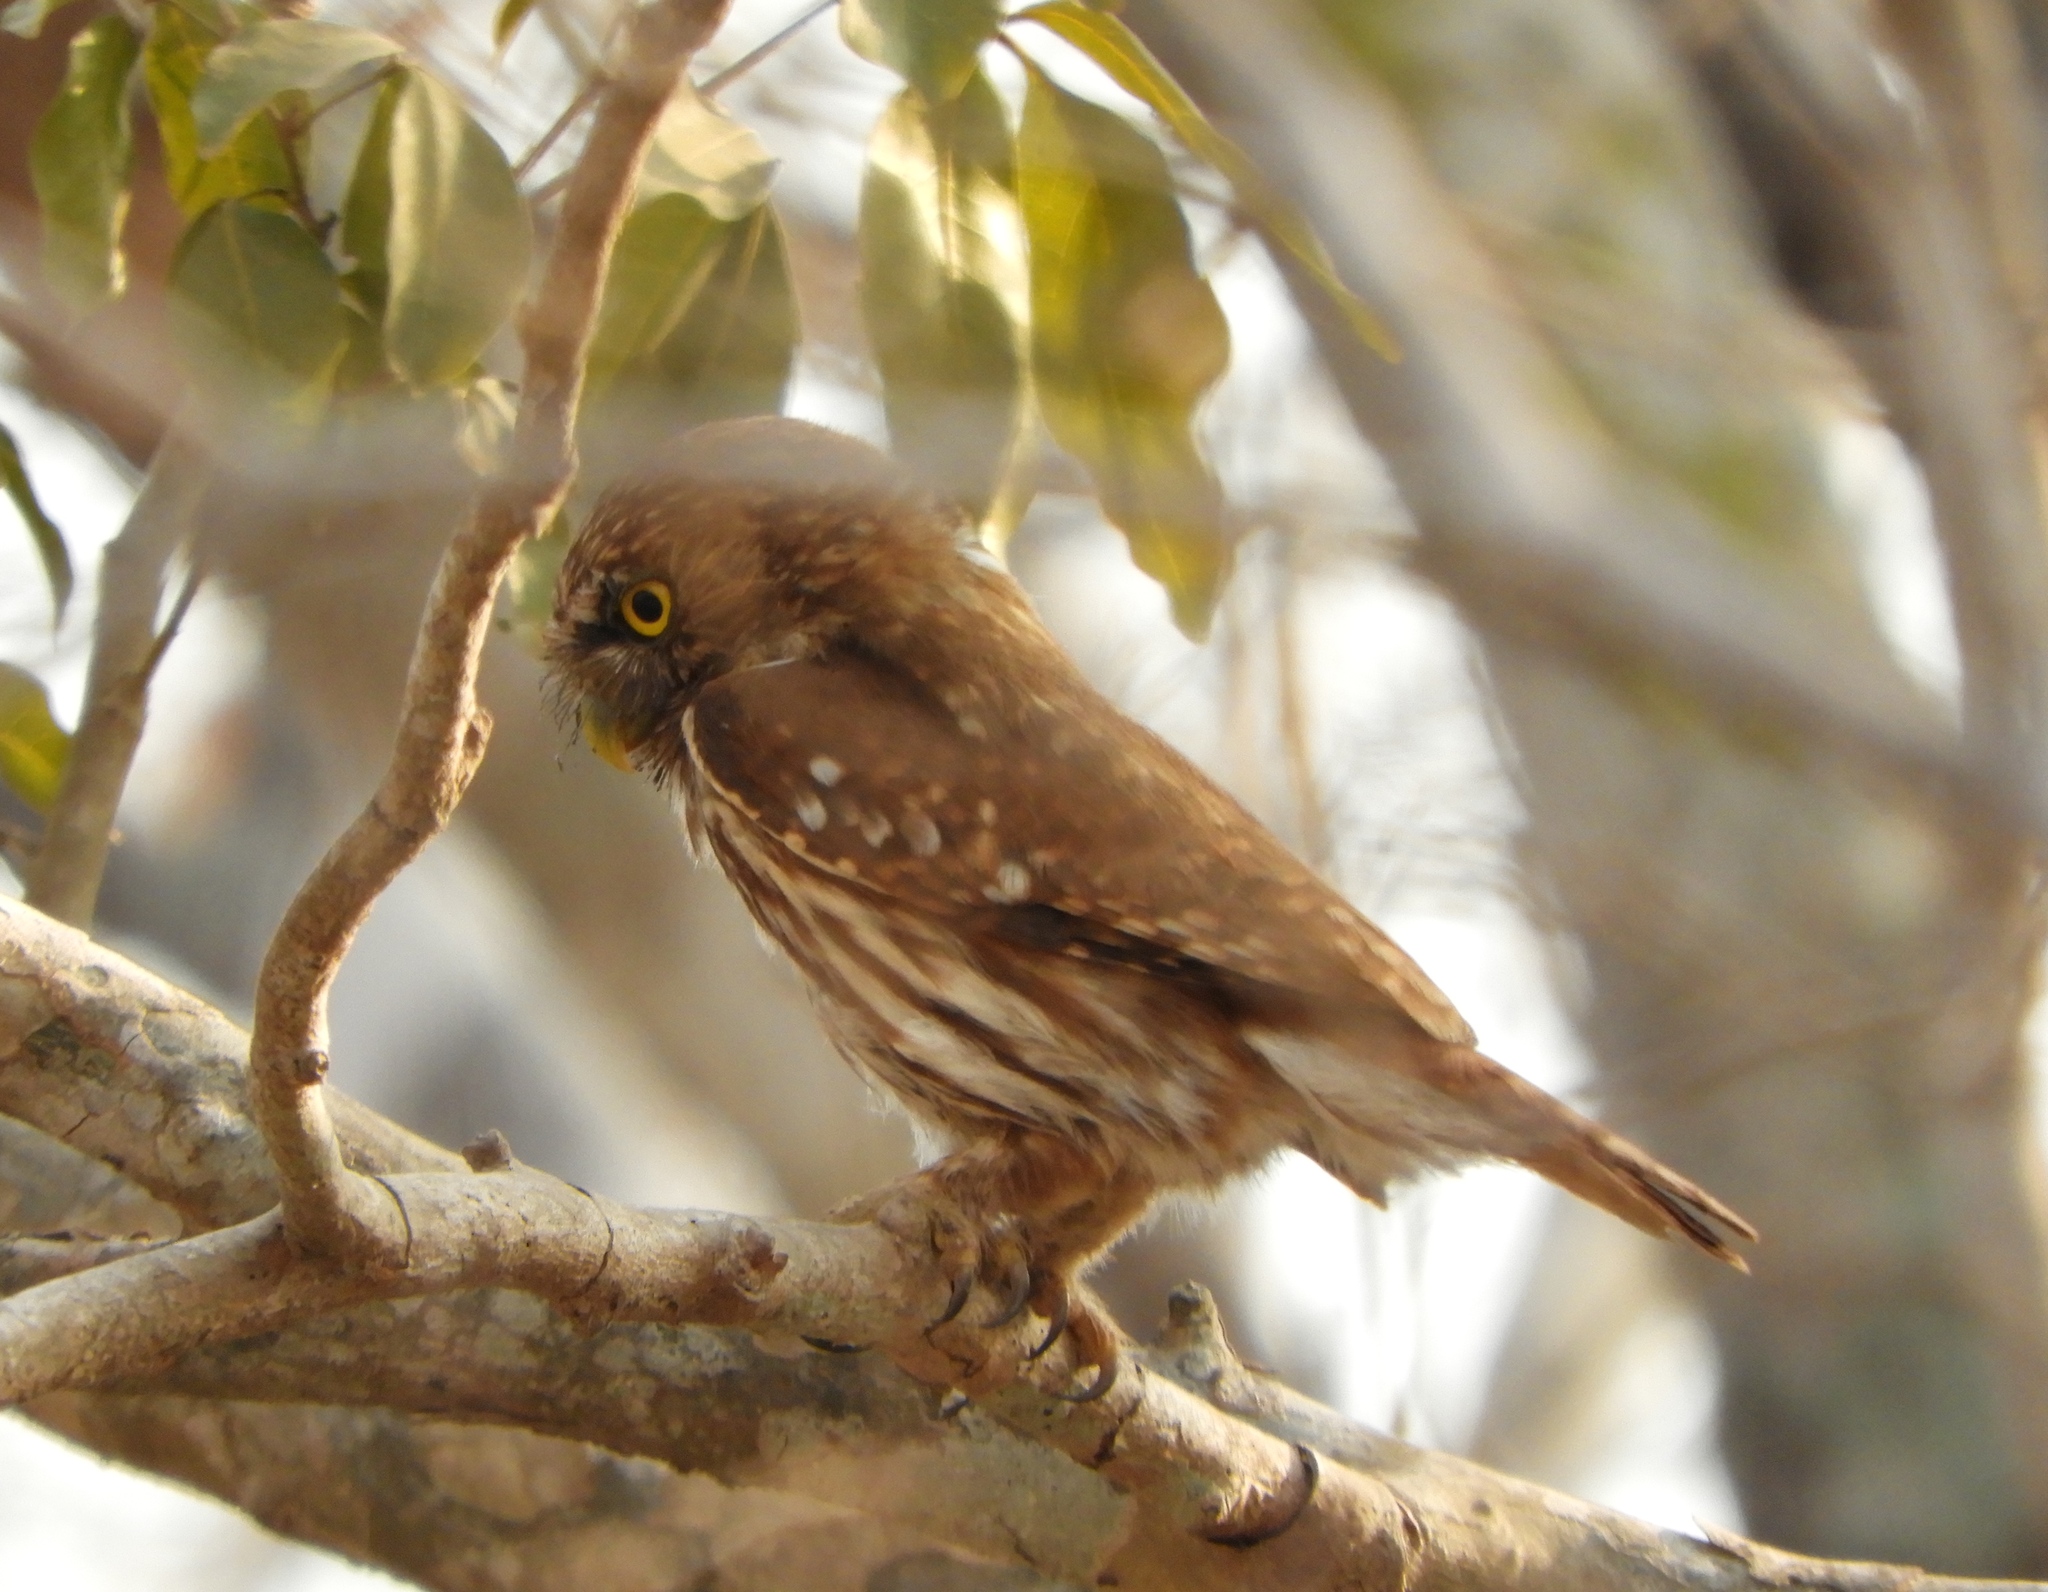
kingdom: Animalia
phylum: Chordata
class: Aves
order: Strigiformes
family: Strigidae
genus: Glaucidium
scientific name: Glaucidium brasilianum
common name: Ferruginous pygmy-owl
